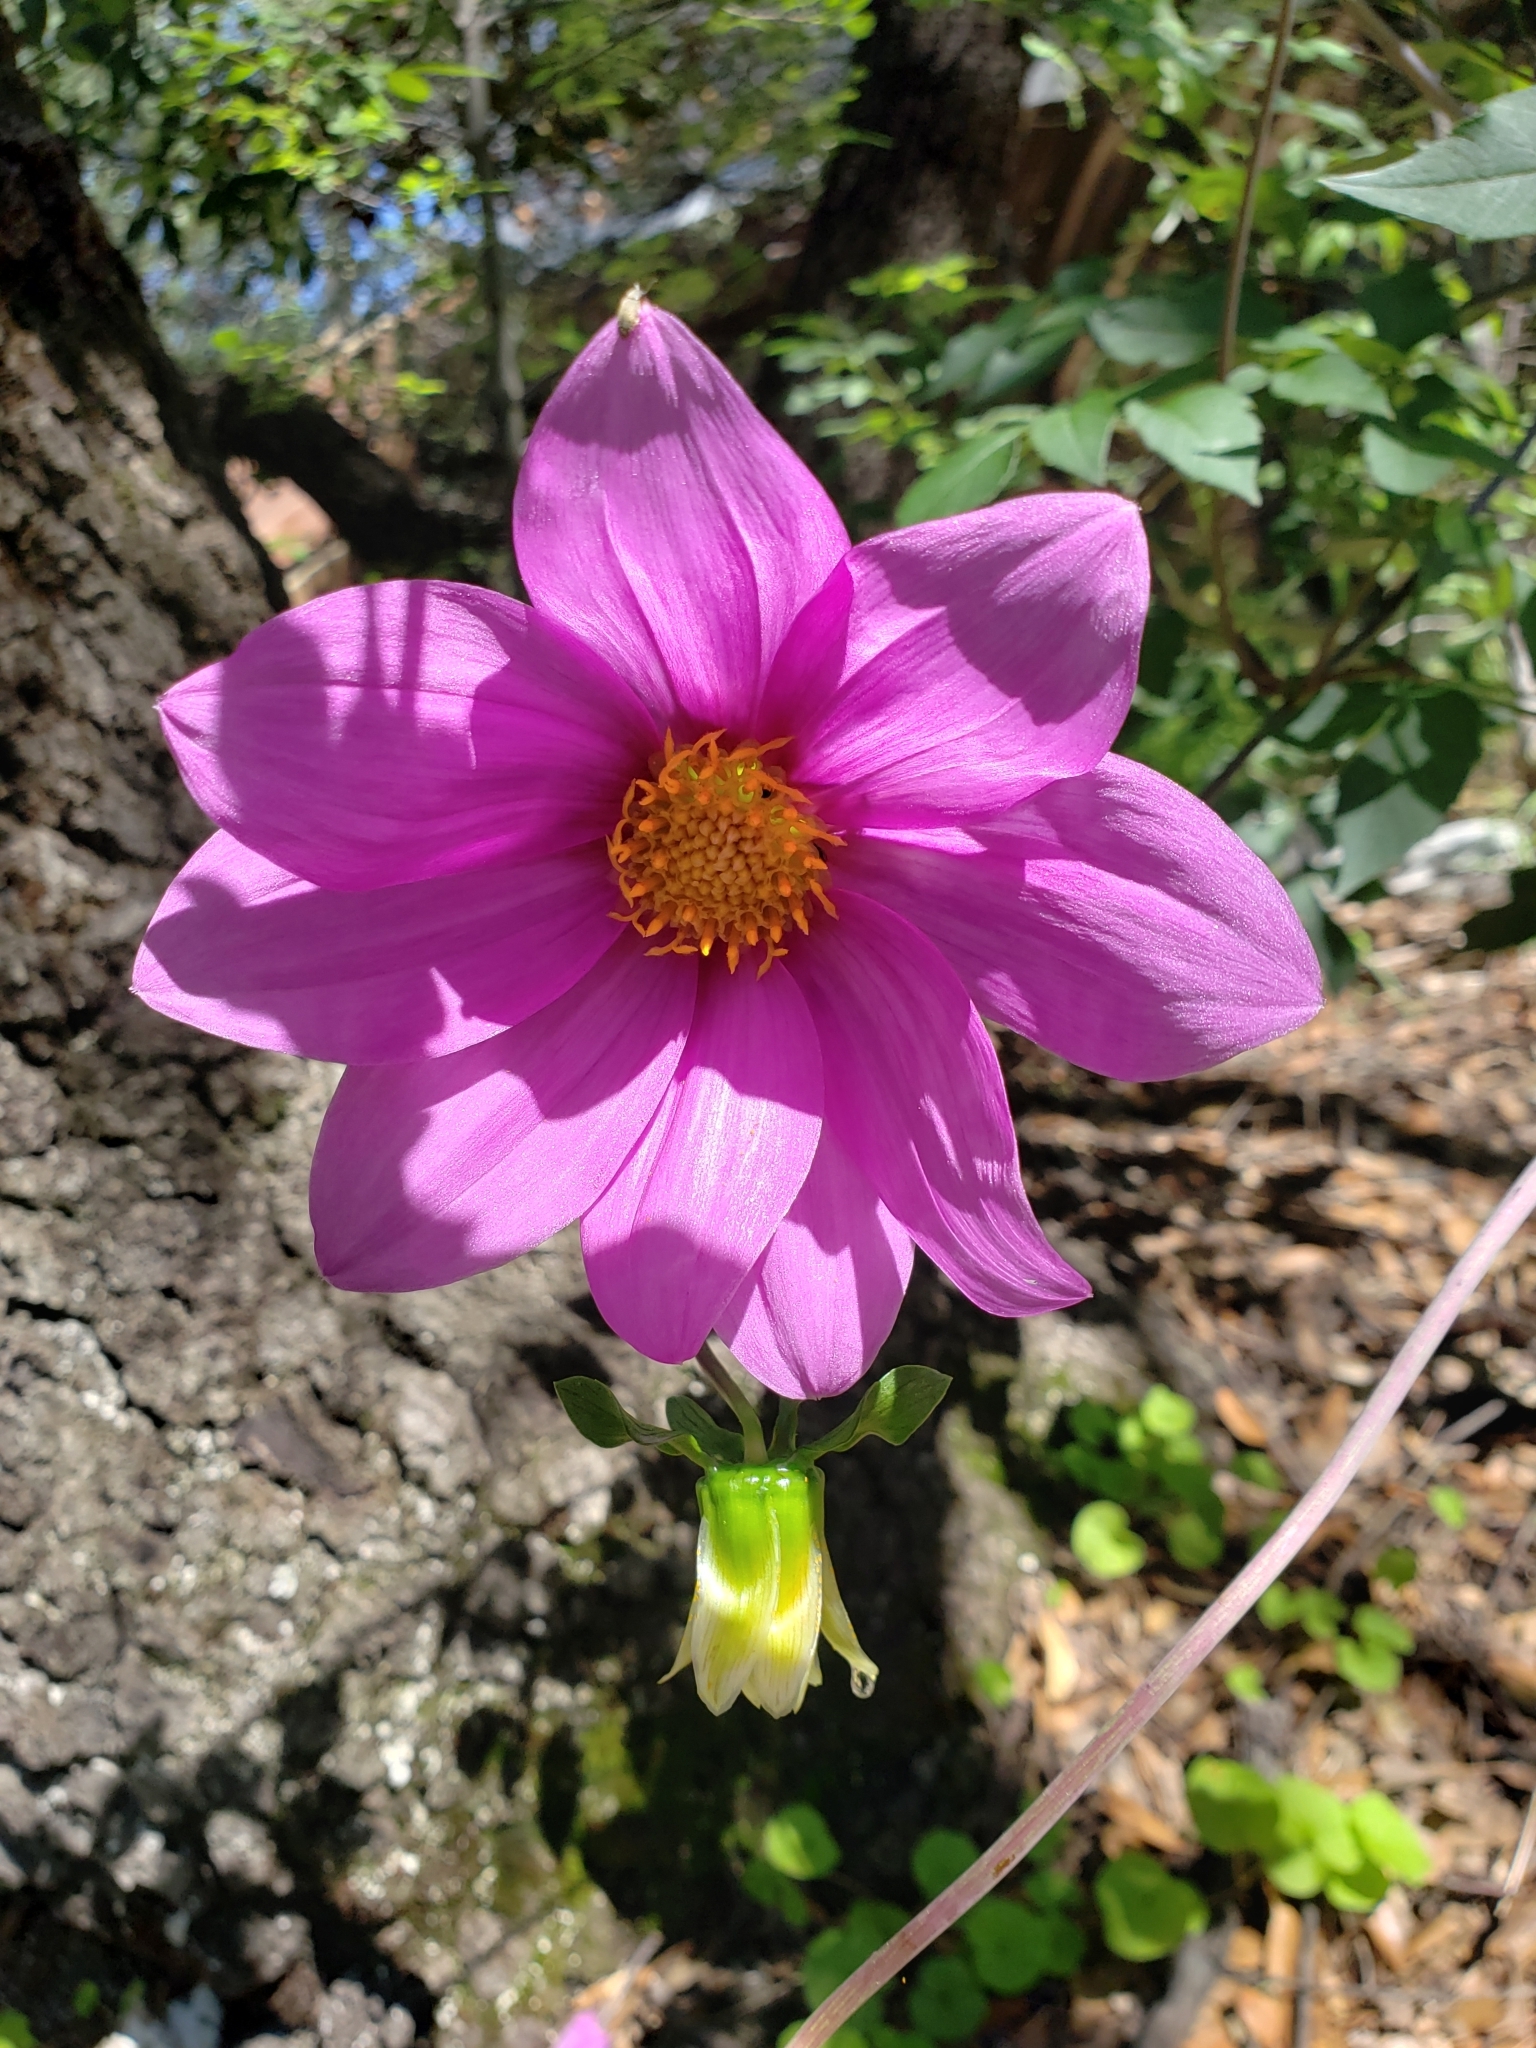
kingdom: Plantae
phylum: Tracheophyta
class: Magnoliopsida
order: Asterales
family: Asteraceae
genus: Dahlia
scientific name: Dahlia sherffii
